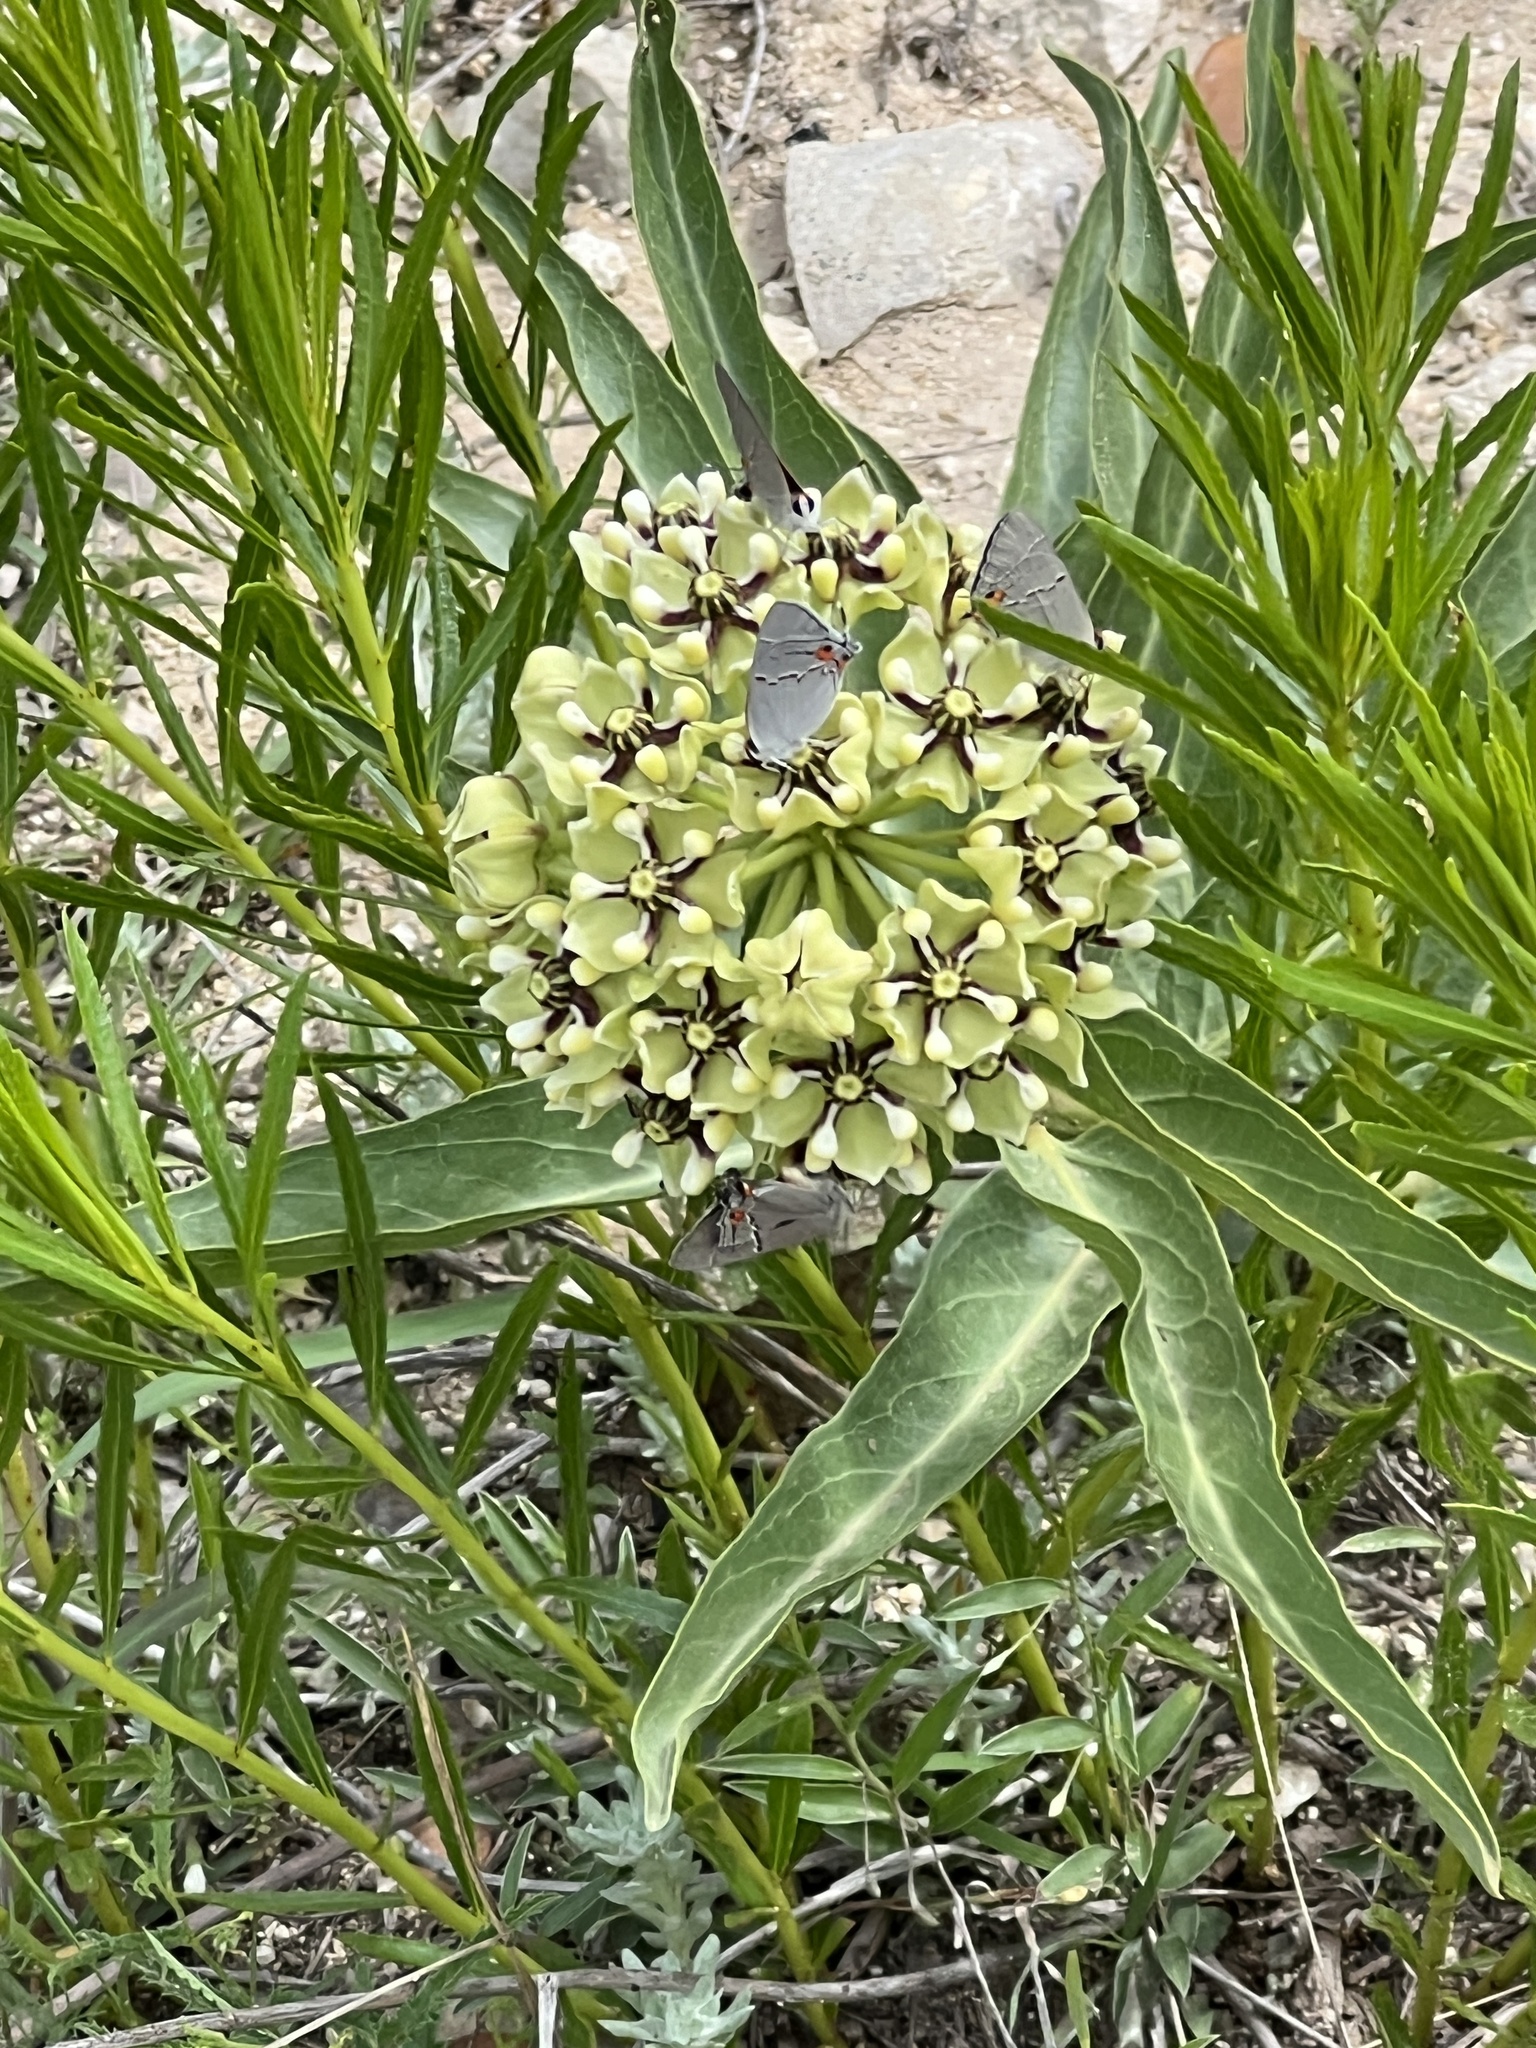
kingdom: Animalia
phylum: Arthropoda
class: Insecta
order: Lepidoptera
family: Lycaenidae
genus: Strymon
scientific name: Strymon melinus
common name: Gray hairstreak
